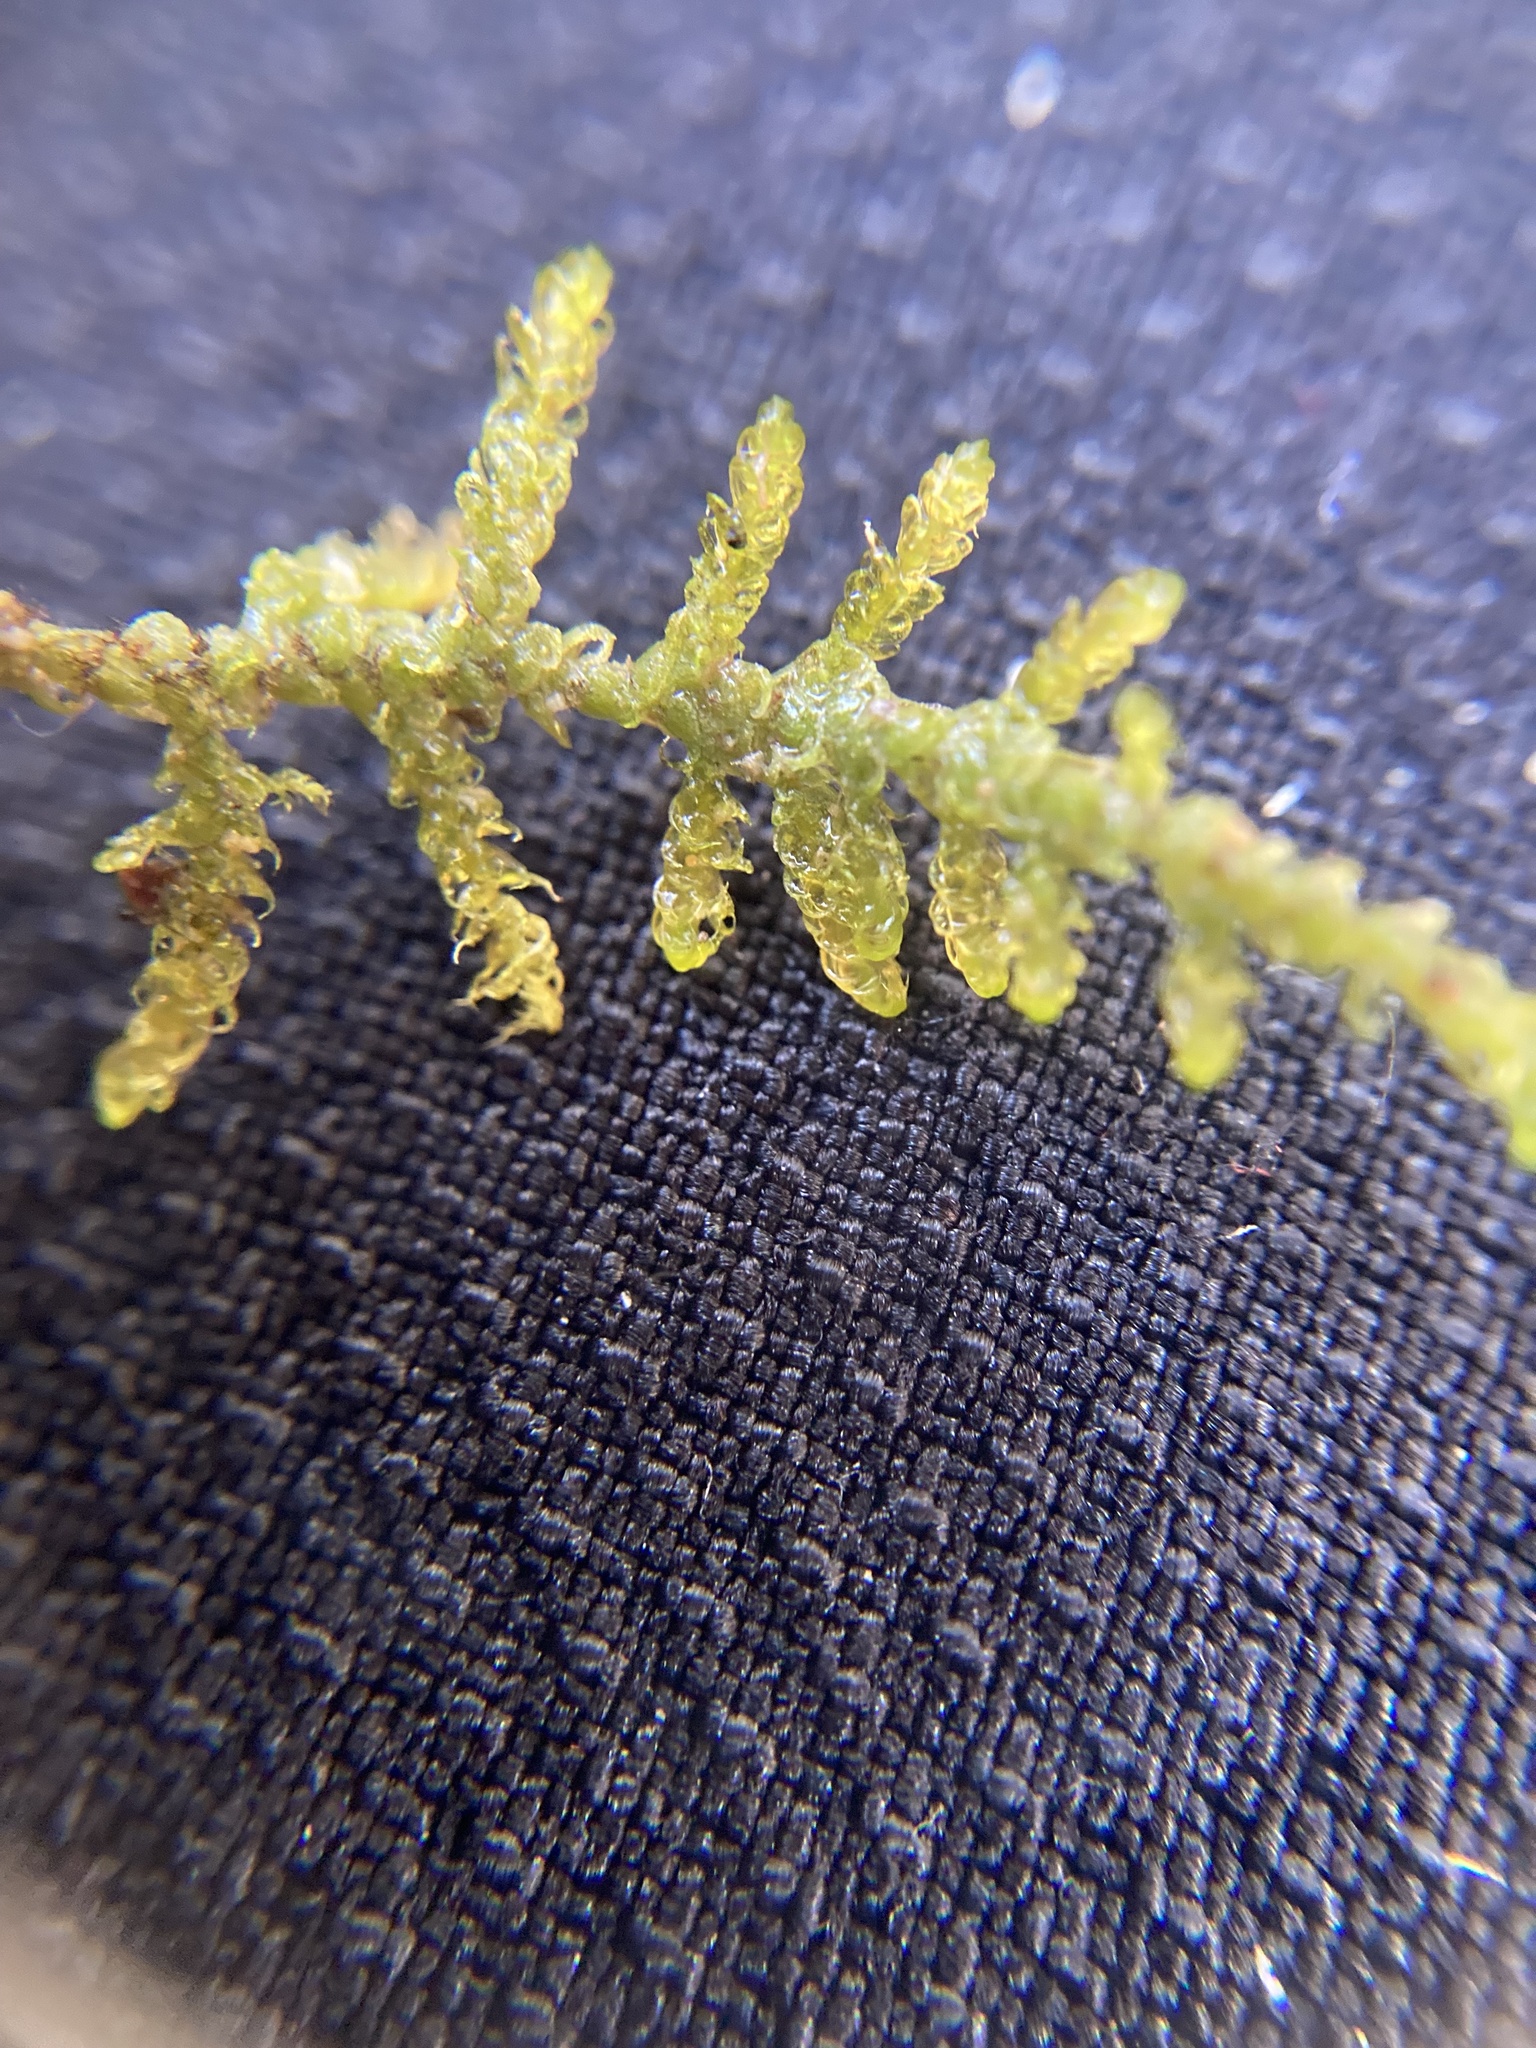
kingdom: Plantae
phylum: Bryophyta
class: Bryopsida
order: Hypnales
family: Amblystegiaceae
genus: Palustriella
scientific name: Palustriella commutata
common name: Curled hook-moss
